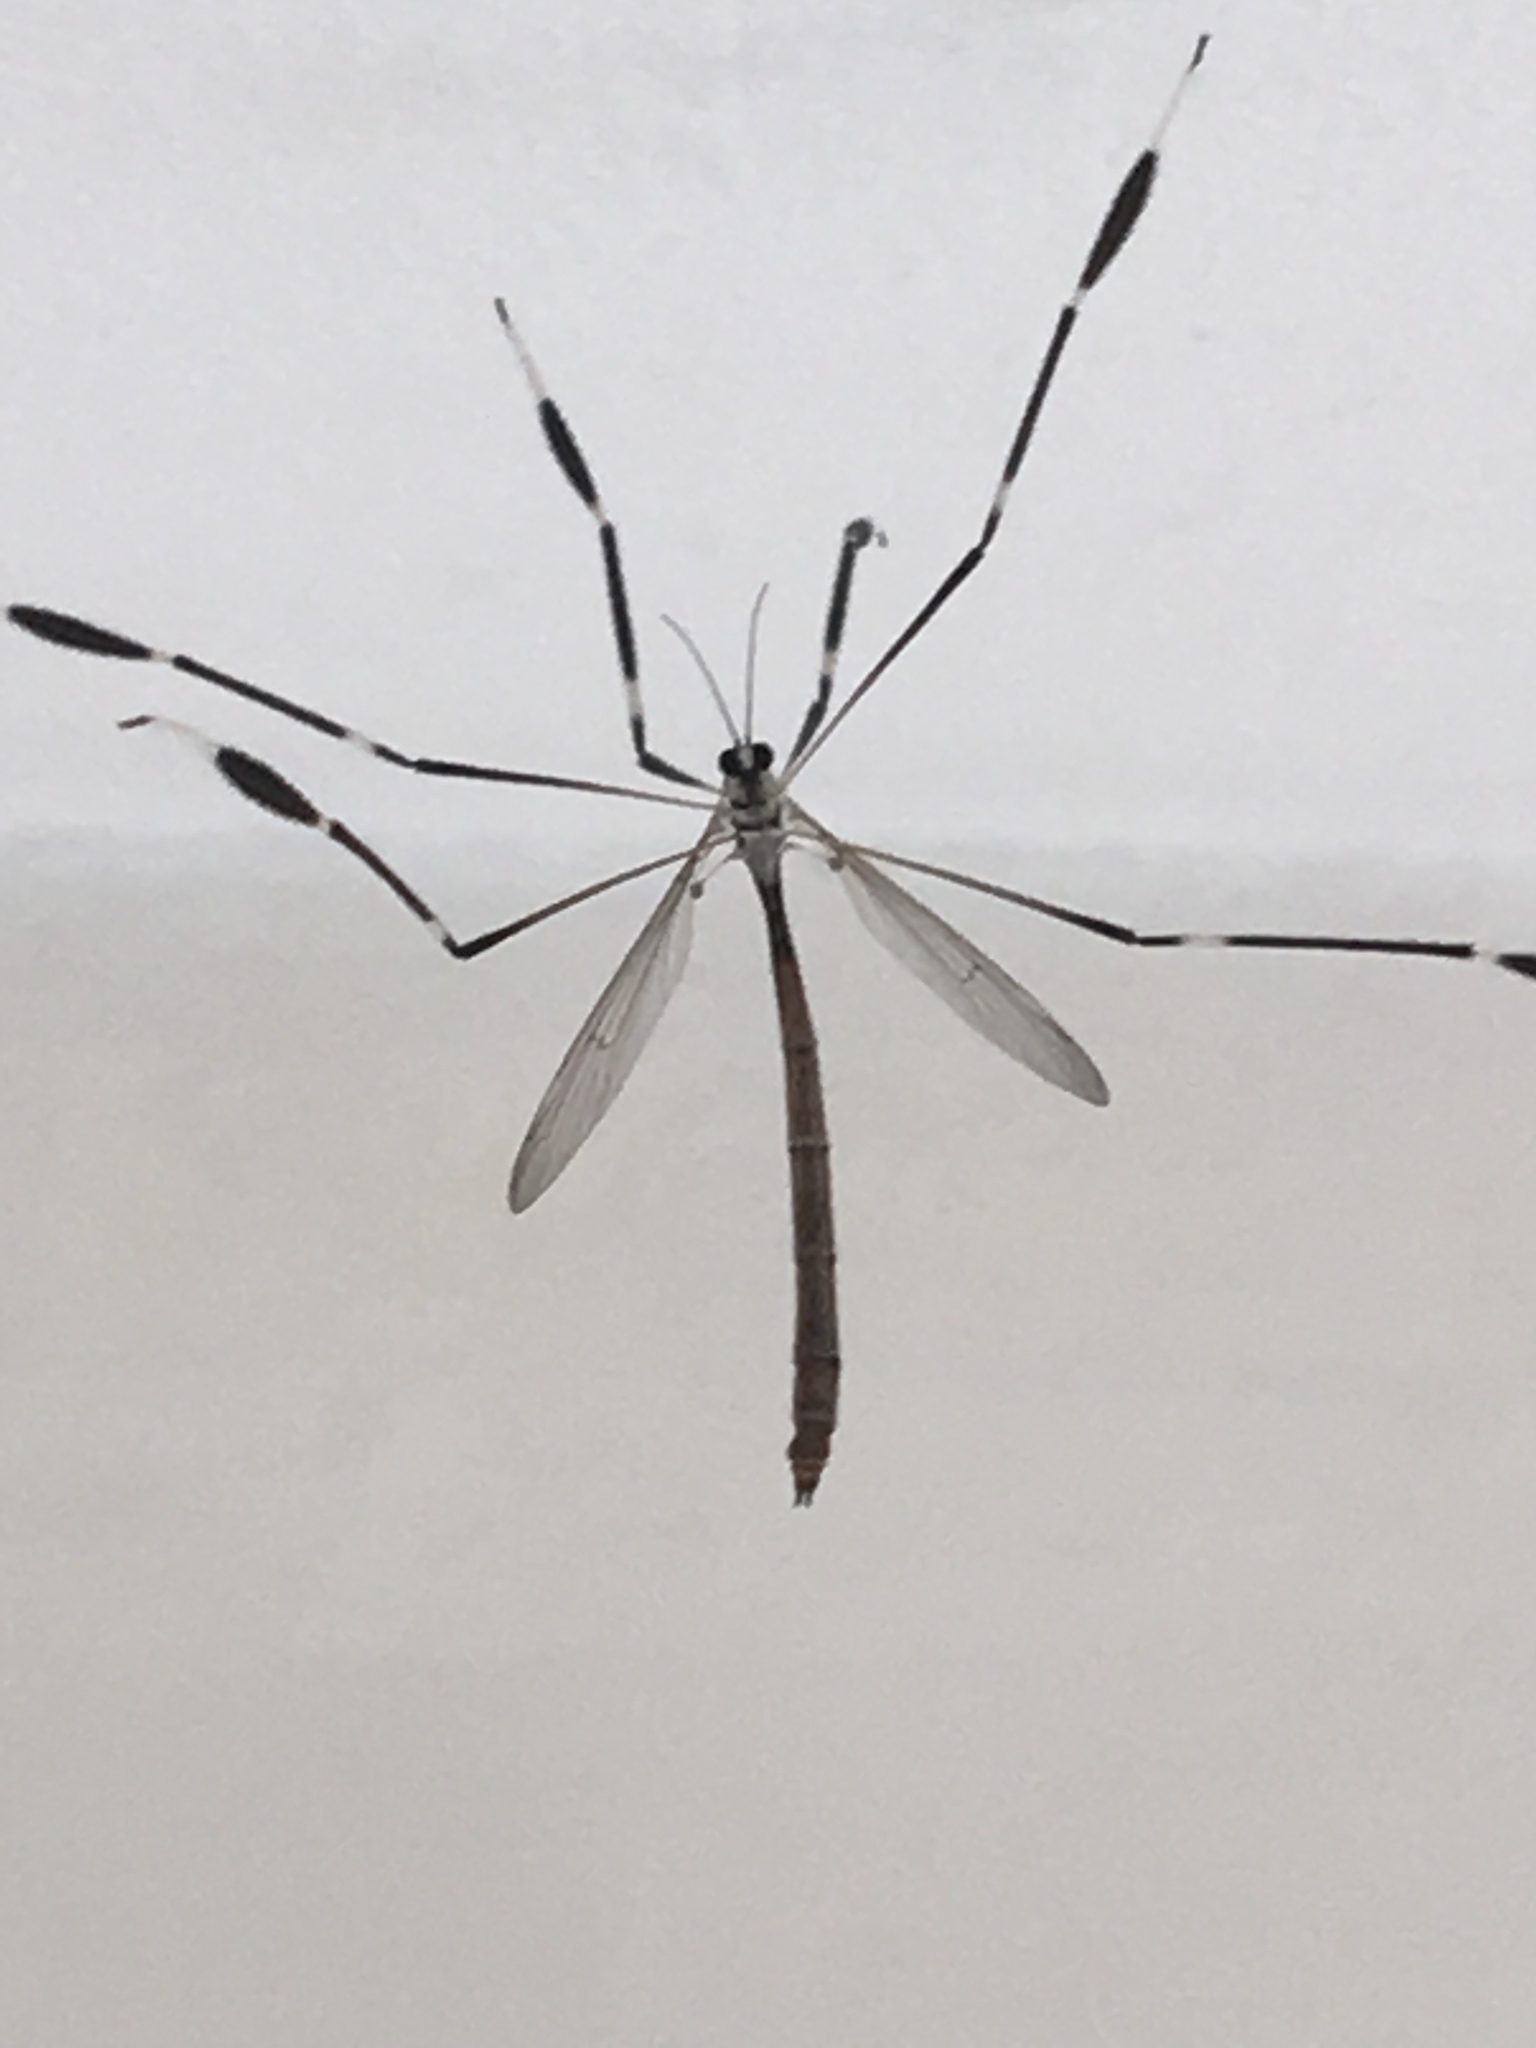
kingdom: Animalia
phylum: Arthropoda
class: Insecta
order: Diptera
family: Ptychopteridae
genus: Bittacomorpha
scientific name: Bittacomorpha clavipes
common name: Eastern phantom crane fly
